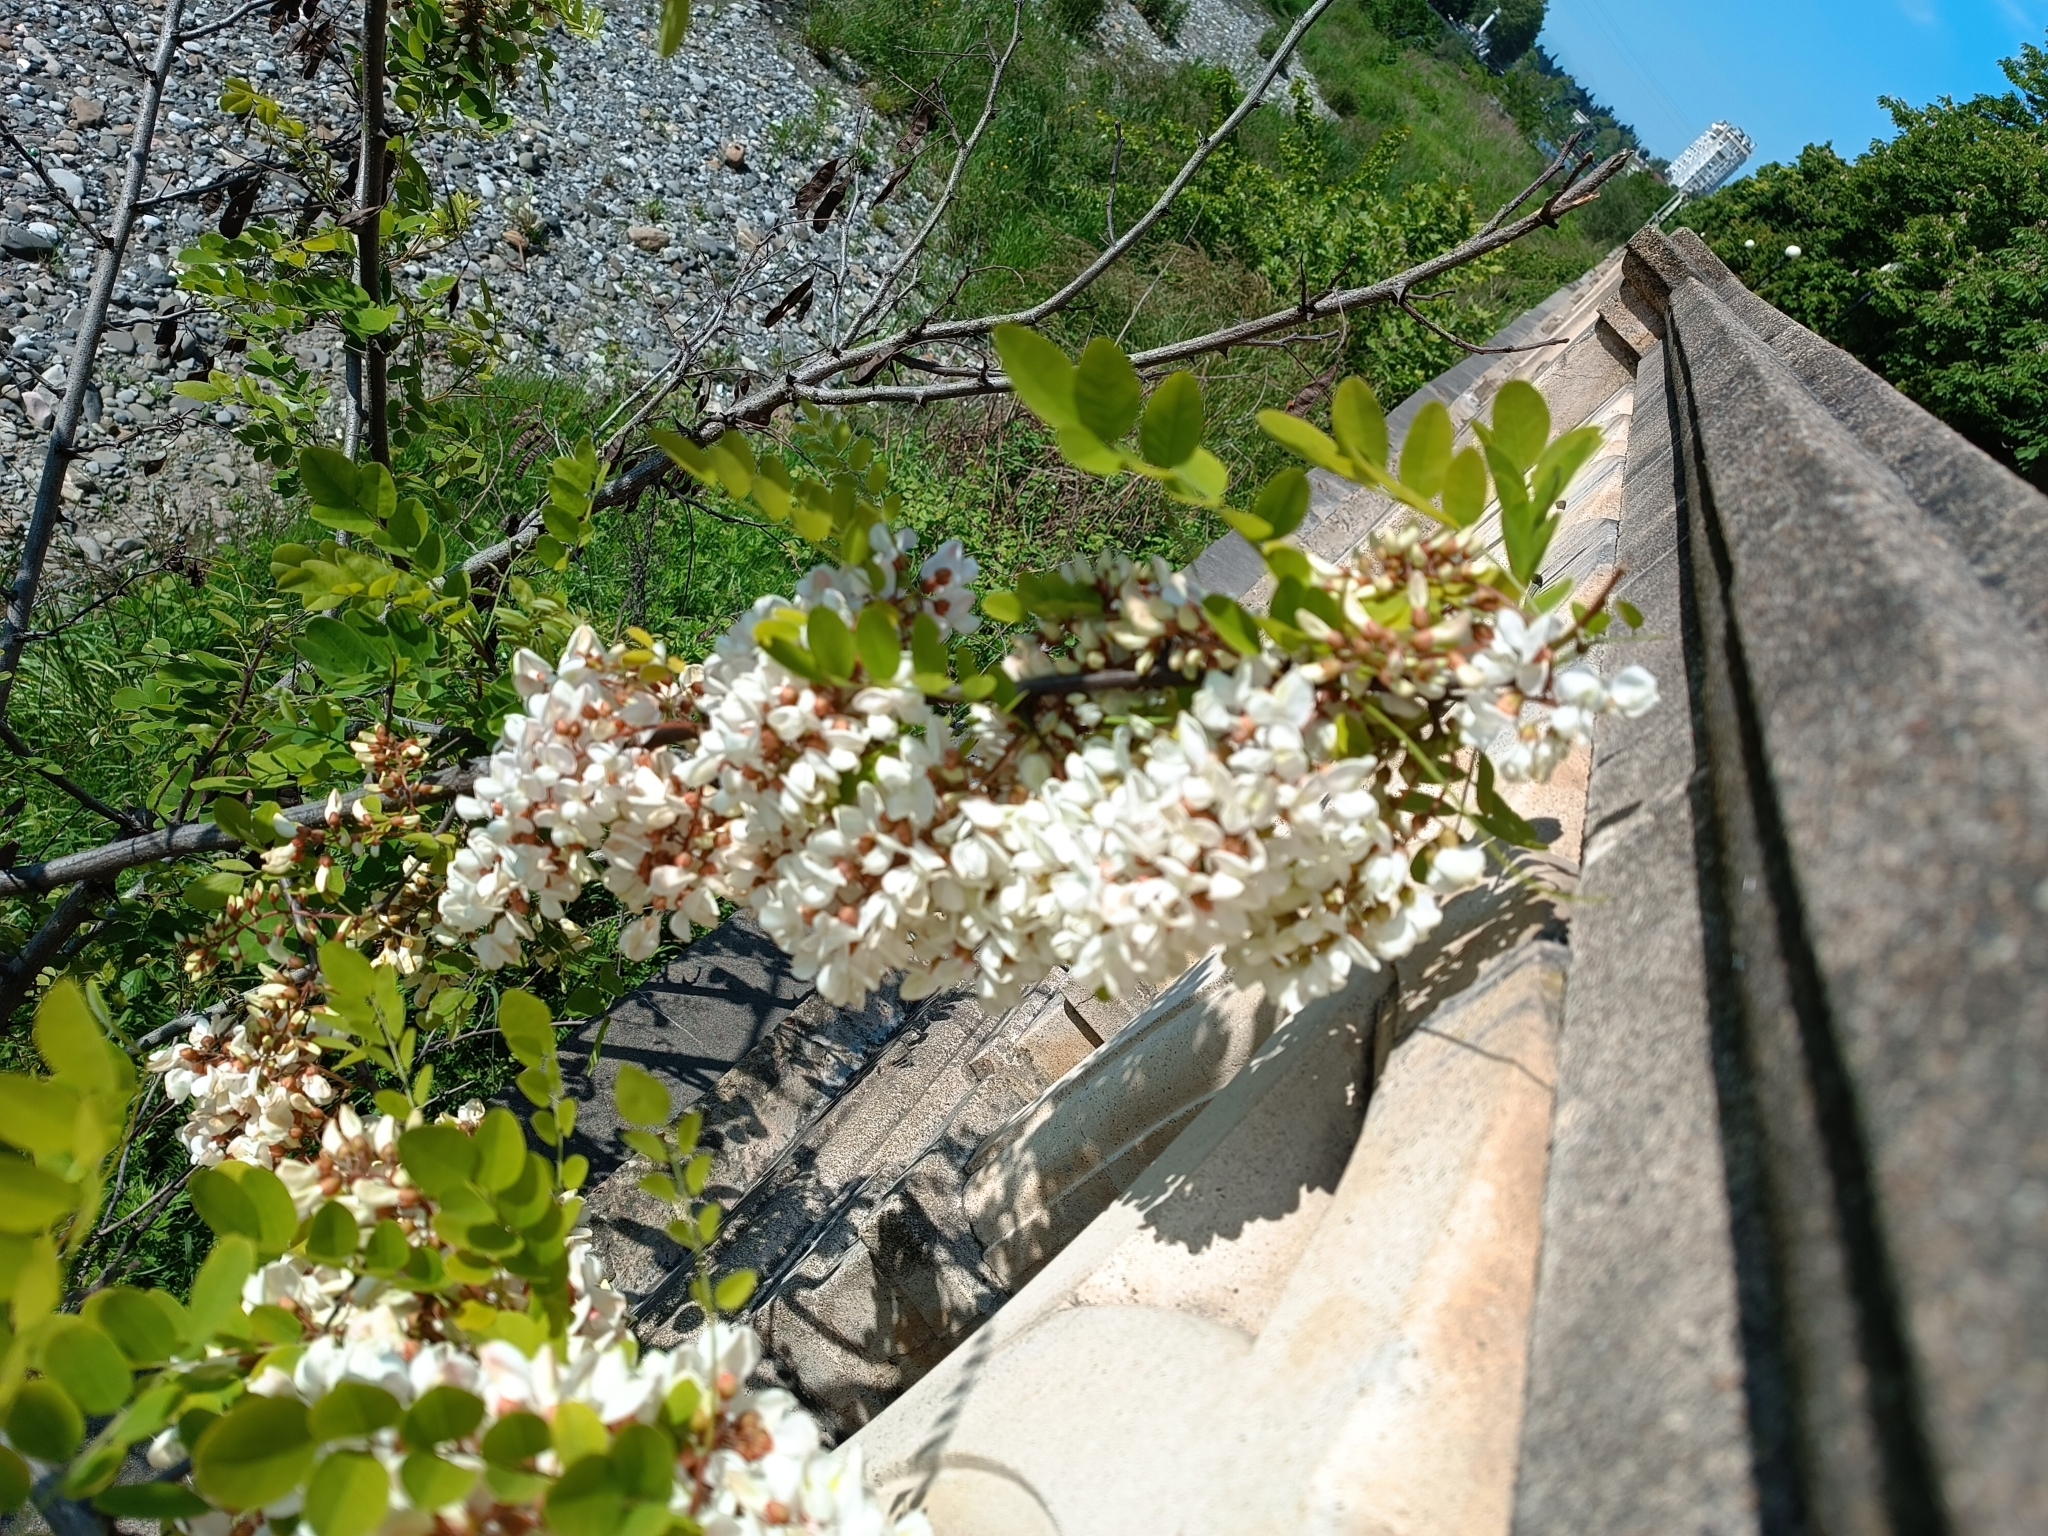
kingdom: Plantae
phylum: Tracheophyta
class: Magnoliopsida
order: Fabales
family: Fabaceae
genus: Robinia
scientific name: Robinia pseudoacacia
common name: Black locust
